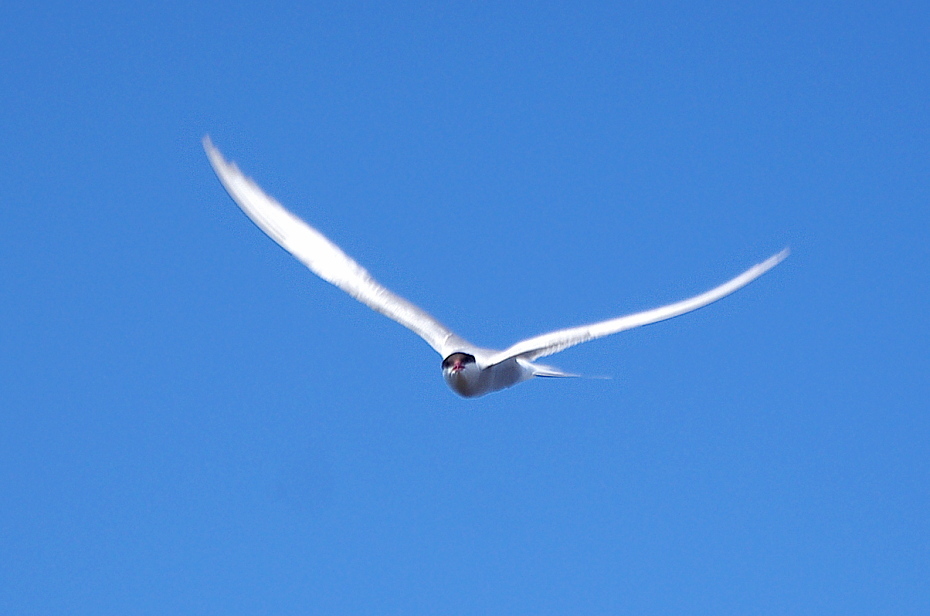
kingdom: Animalia
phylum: Chordata
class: Aves
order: Charadriiformes
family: Laridae
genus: Sterna
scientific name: Sterna paradisaea
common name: Arctic tern
